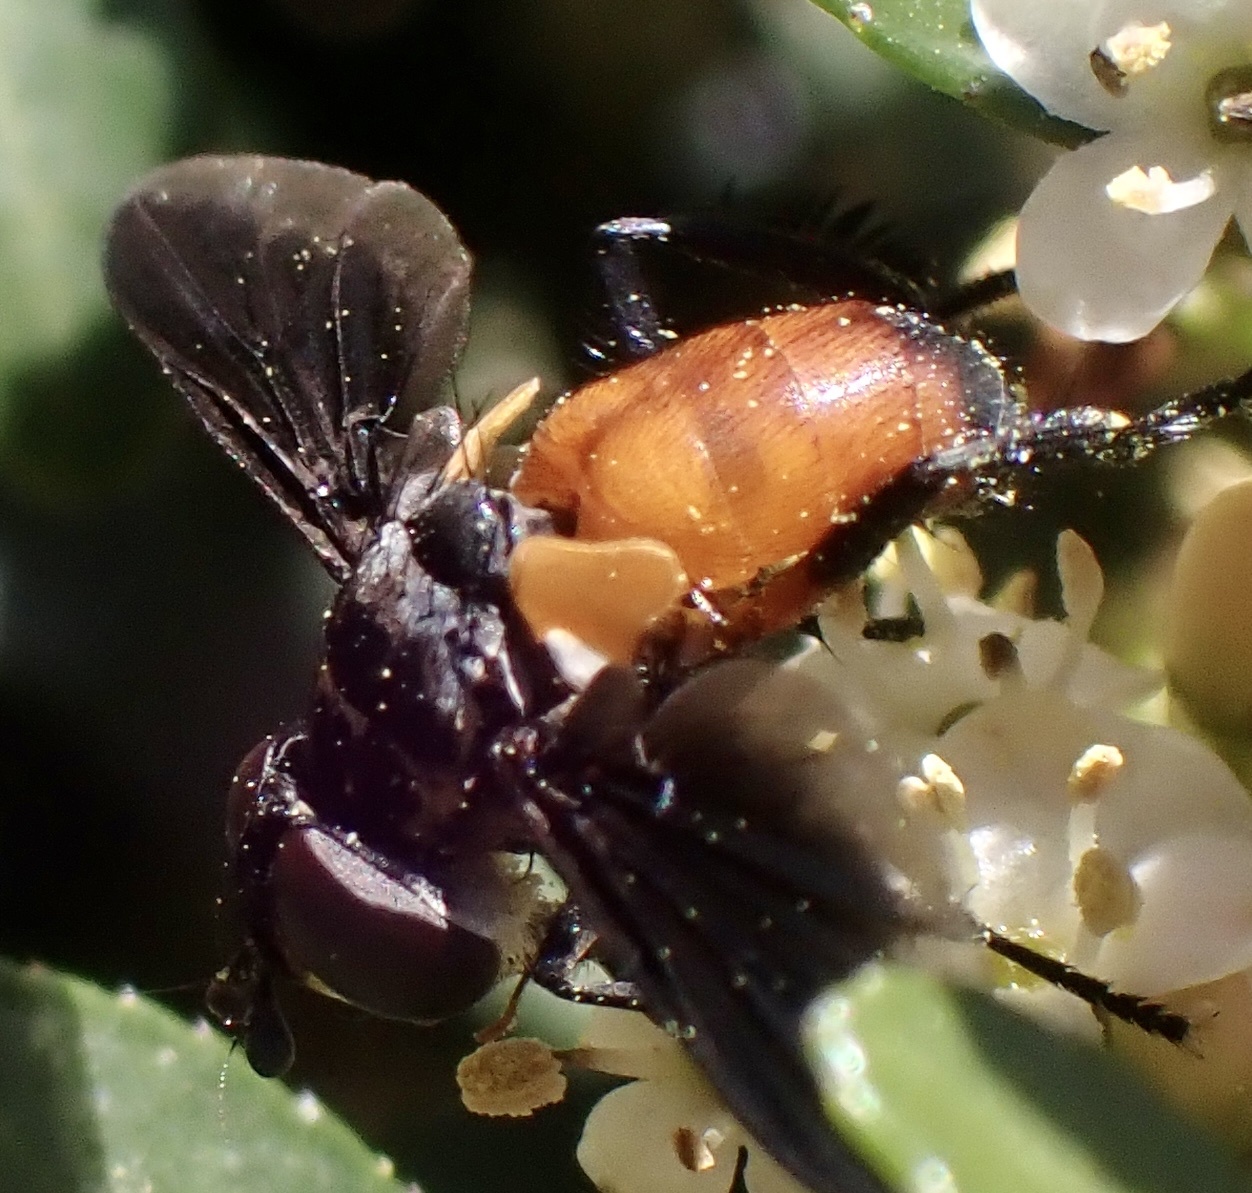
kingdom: Animalia
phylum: Arthropoda
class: Insecta
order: Diptera
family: Tachinidae
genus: Trichopoda
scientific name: Trichopoda pennipes
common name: Tachinid fly
